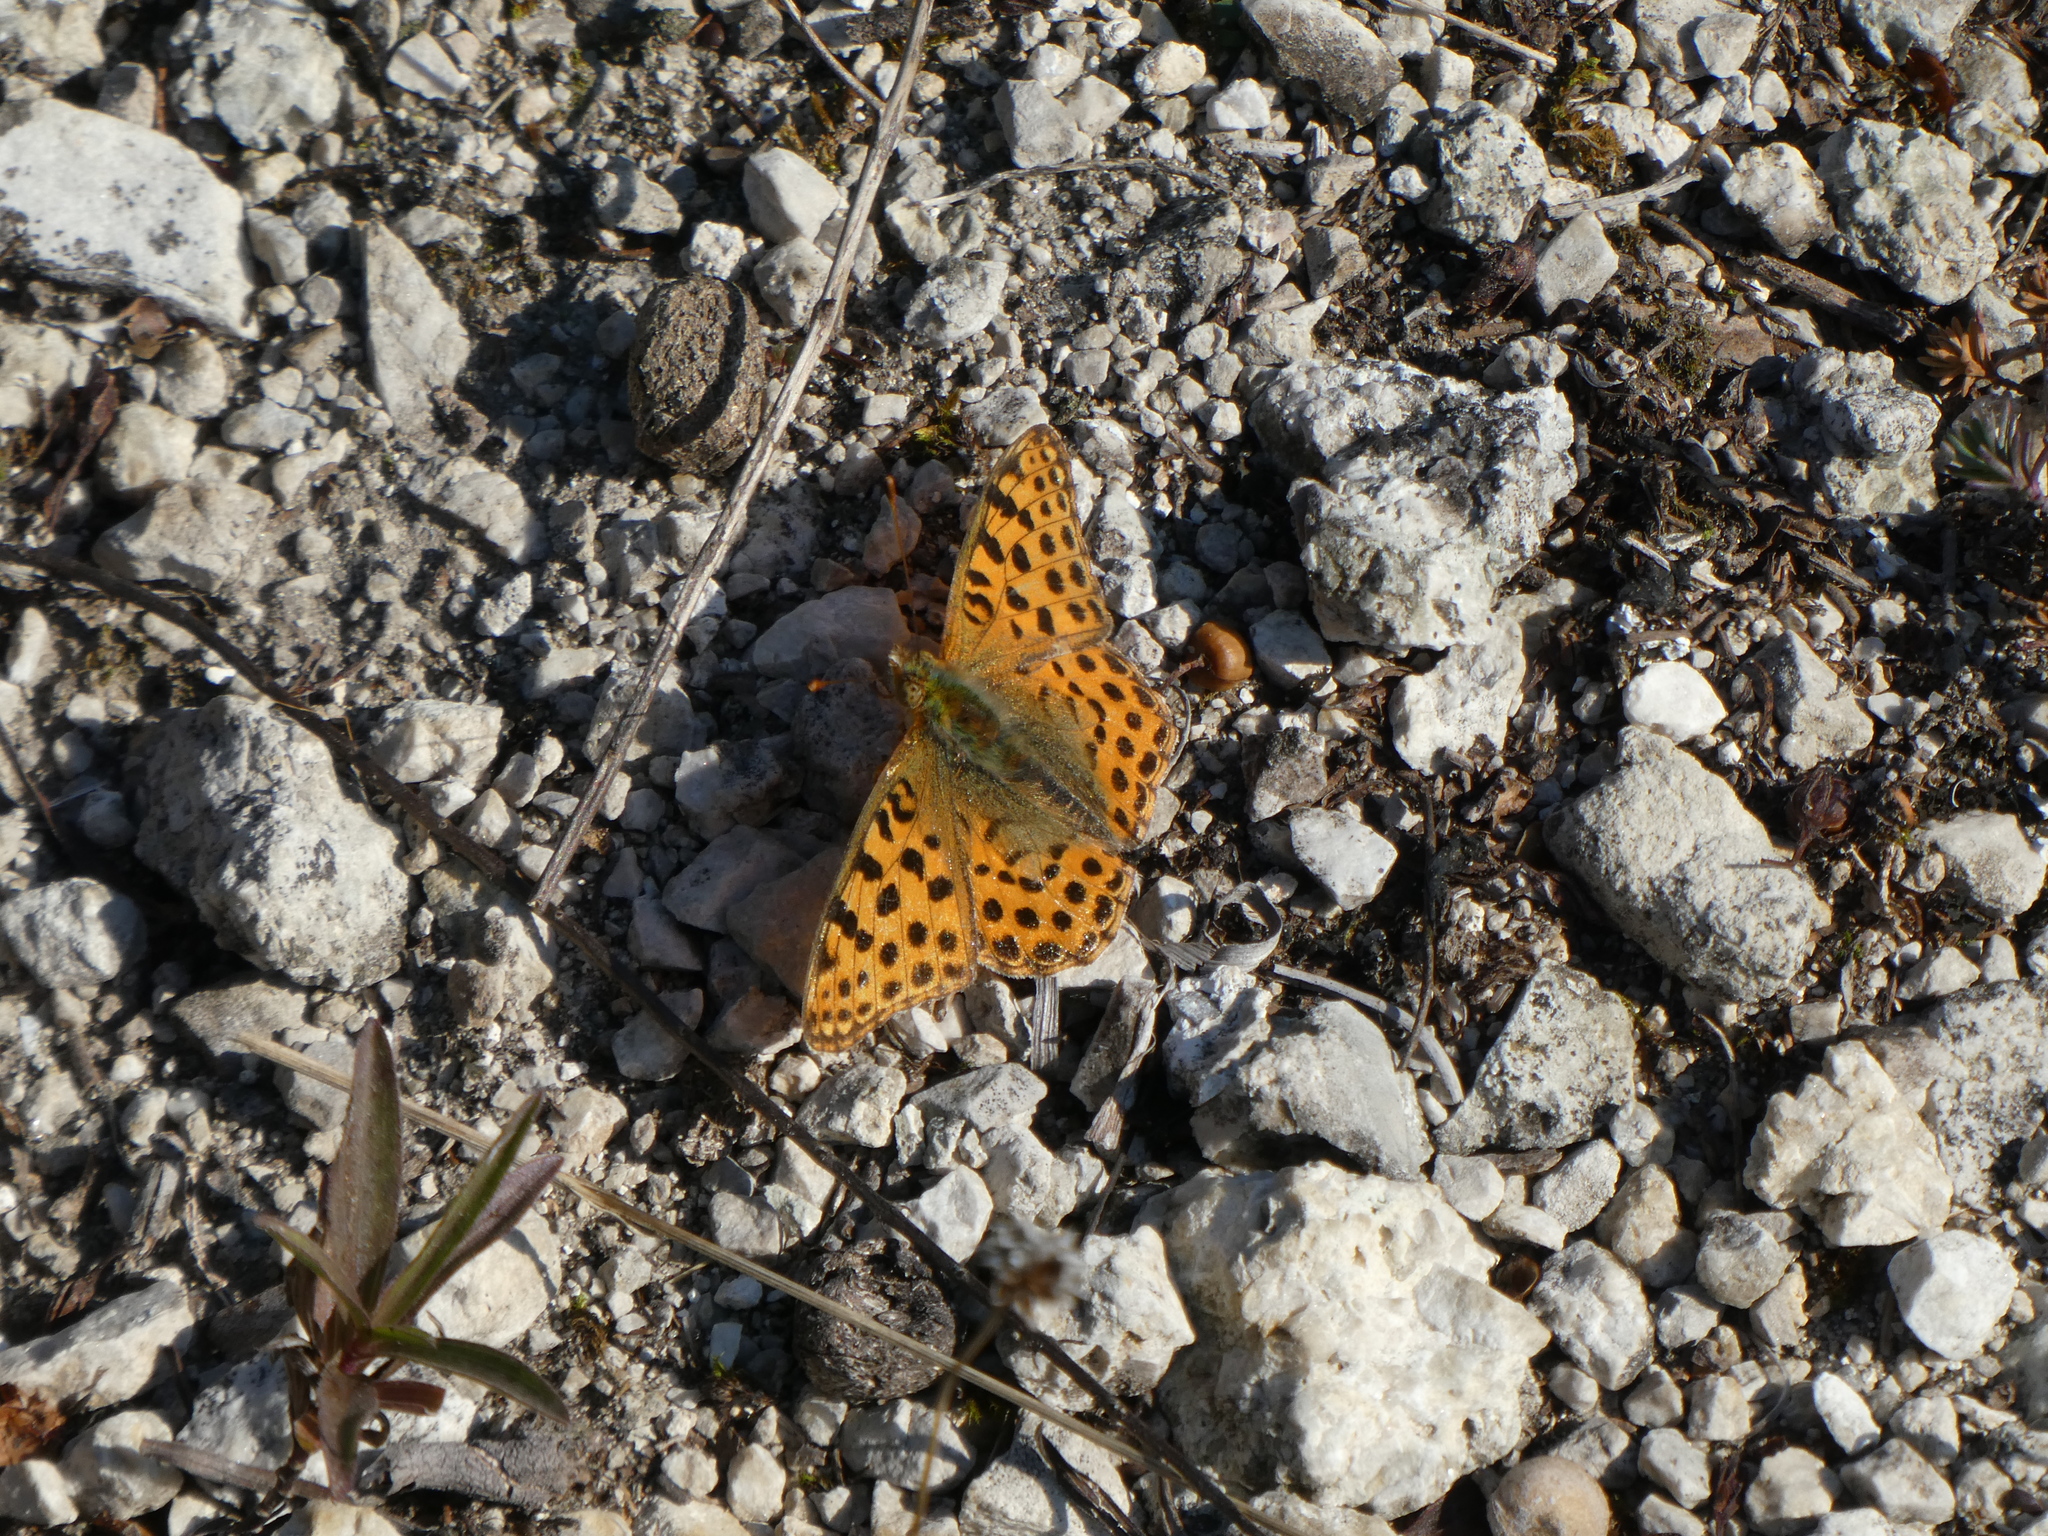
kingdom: Animalia
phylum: Arthropoda
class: Insecta
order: Lepidoptera
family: Nymphalidae
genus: Issoria
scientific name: Issoria lathonia
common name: Queen of spain fritillary
